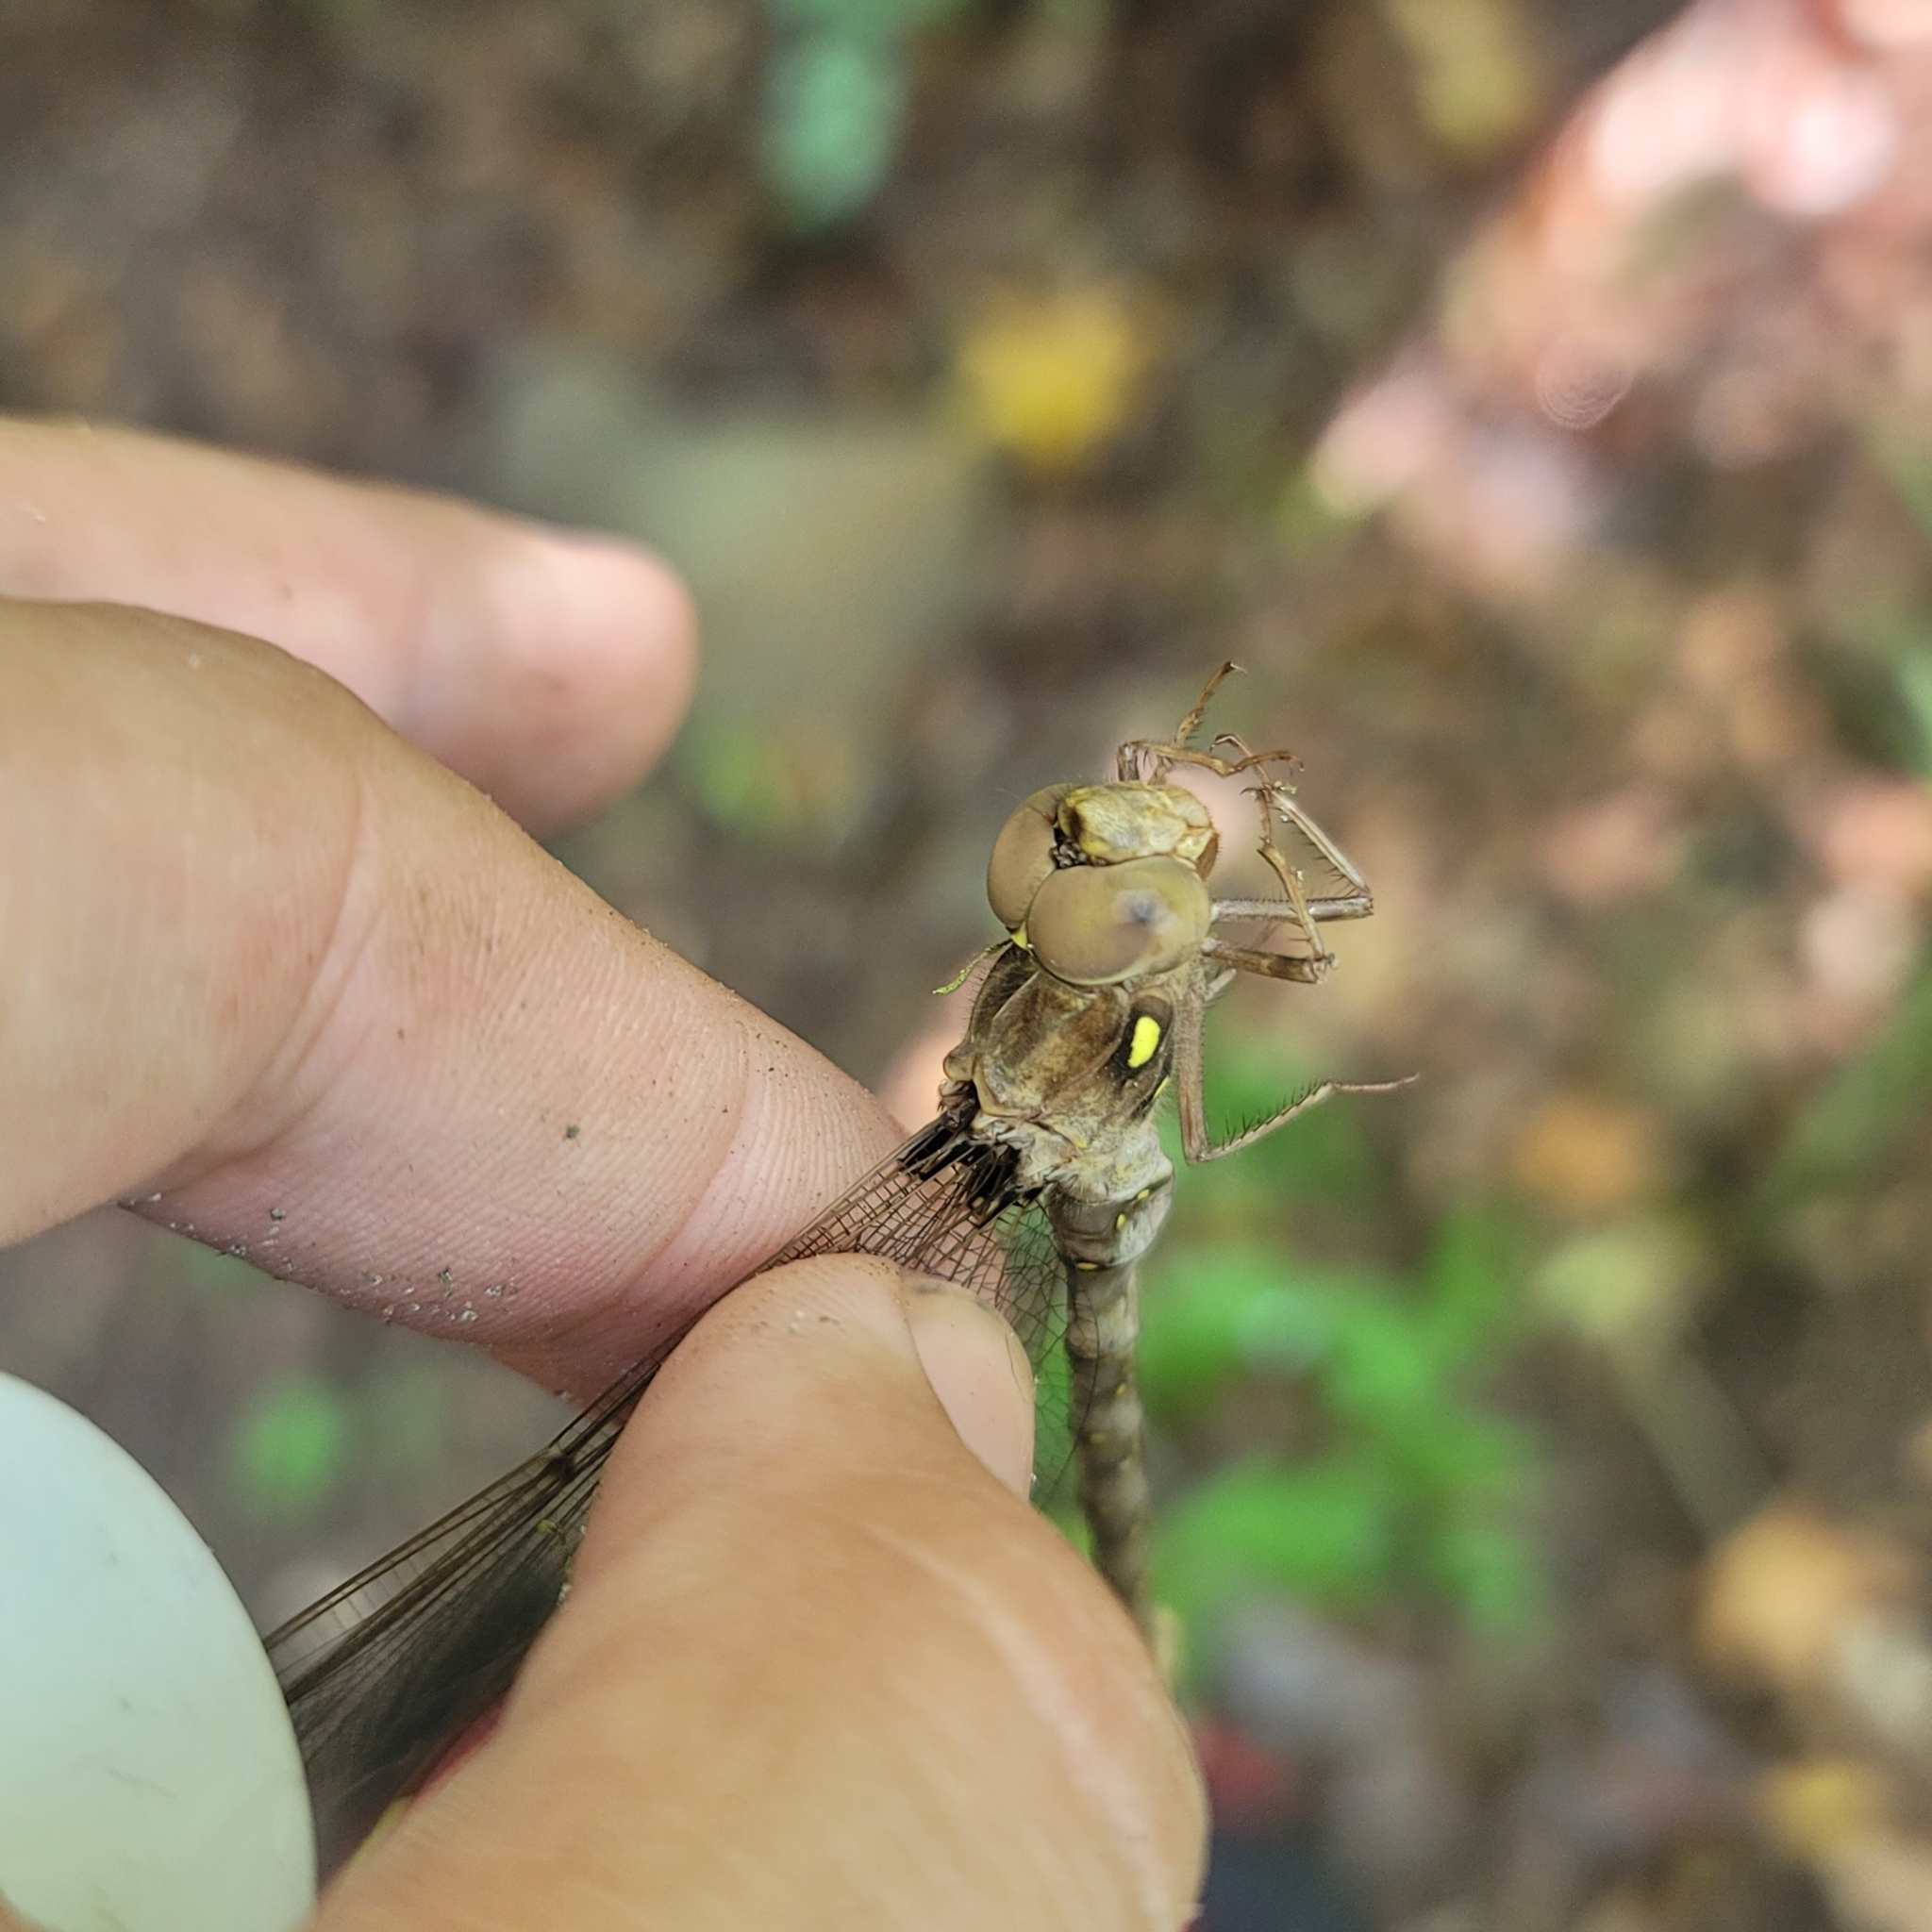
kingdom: Animalia
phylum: Arthropoda
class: Insecta
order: Odonata
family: Aeshnidae
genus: Boyeria
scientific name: Boyeria vinosa
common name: Fawn darner
